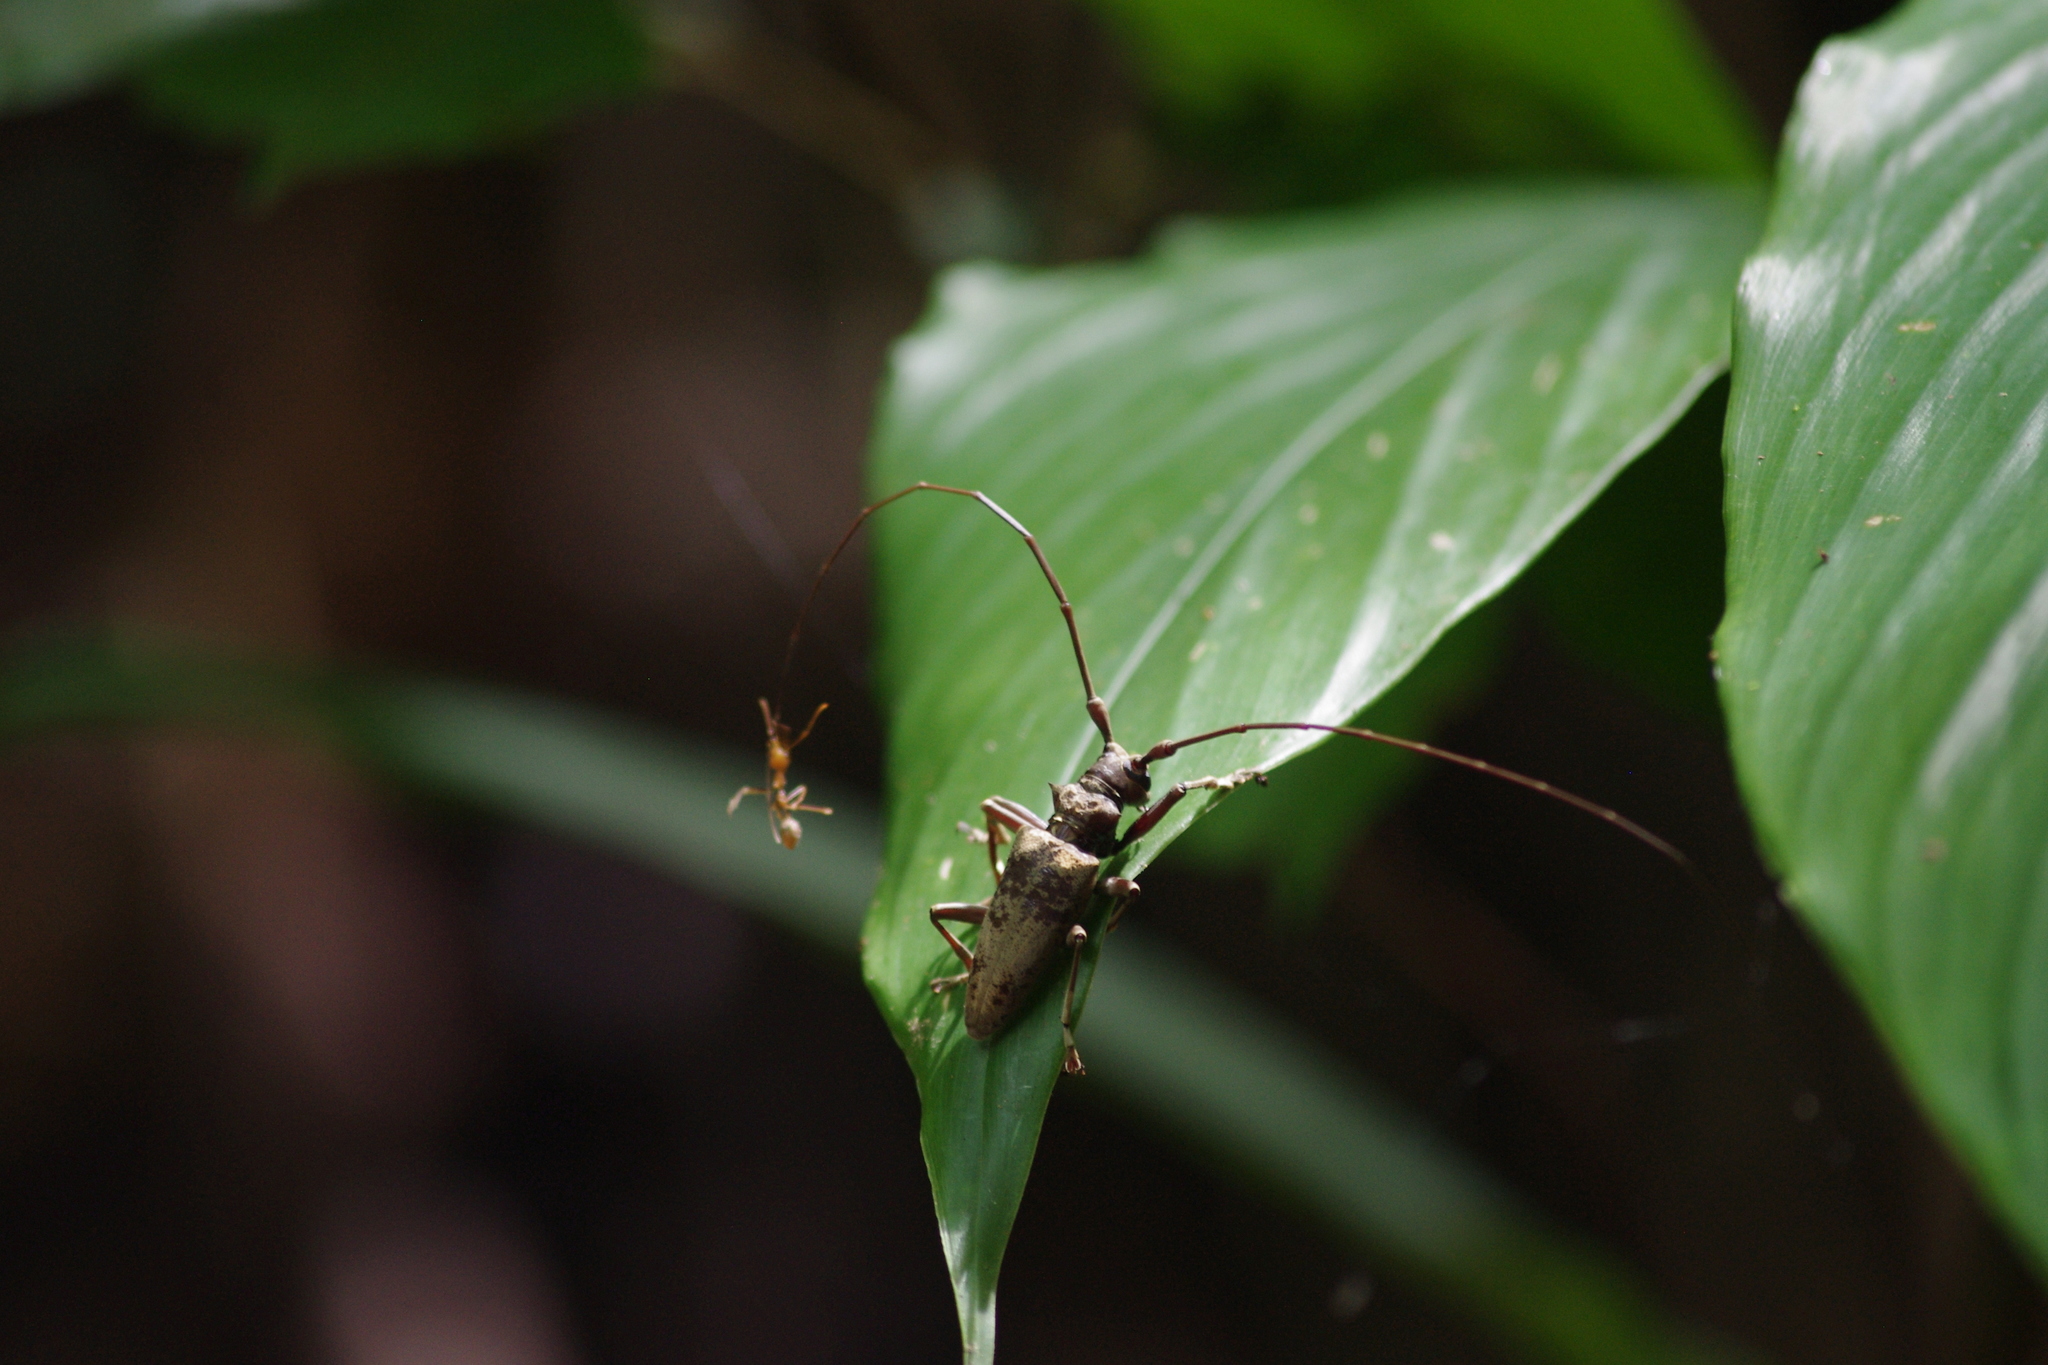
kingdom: Animalia
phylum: Arthropoda
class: Insecta
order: Coleoptera
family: Cerambycidae
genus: Acalolepta
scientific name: Acalolepta tincturata
